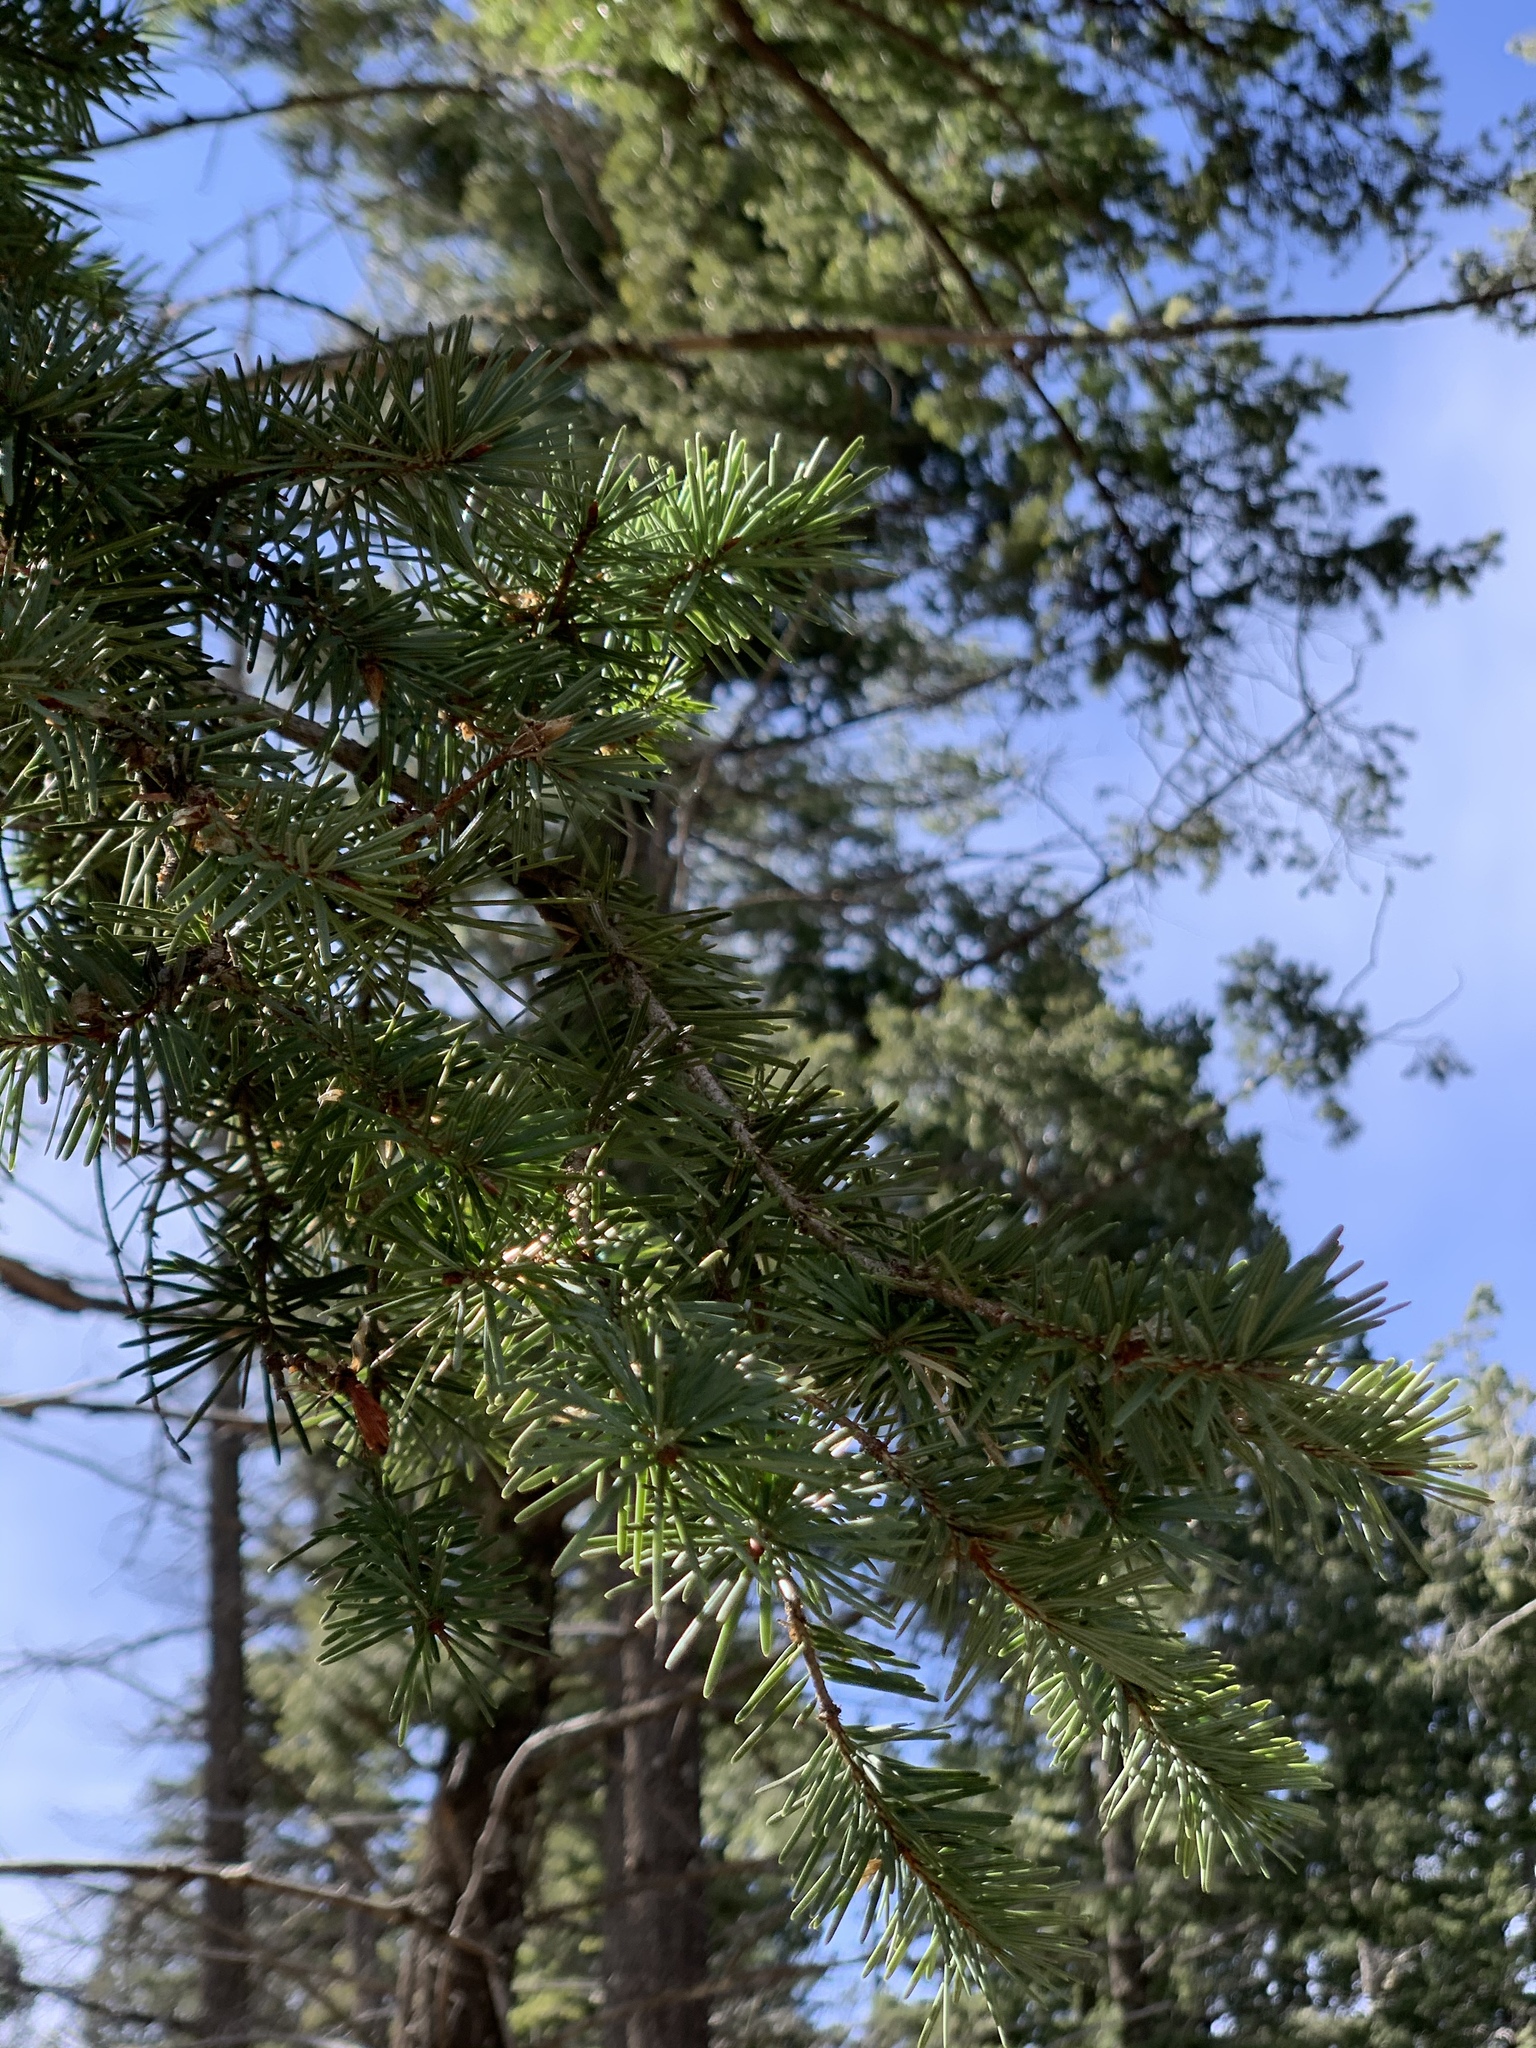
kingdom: Plantae
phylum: Tracheophyta
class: Pinopsida
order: Pinales
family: Pinaceae
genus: Pseudotsuga
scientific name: Pseudotsuga menziesii
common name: Douglas fir
